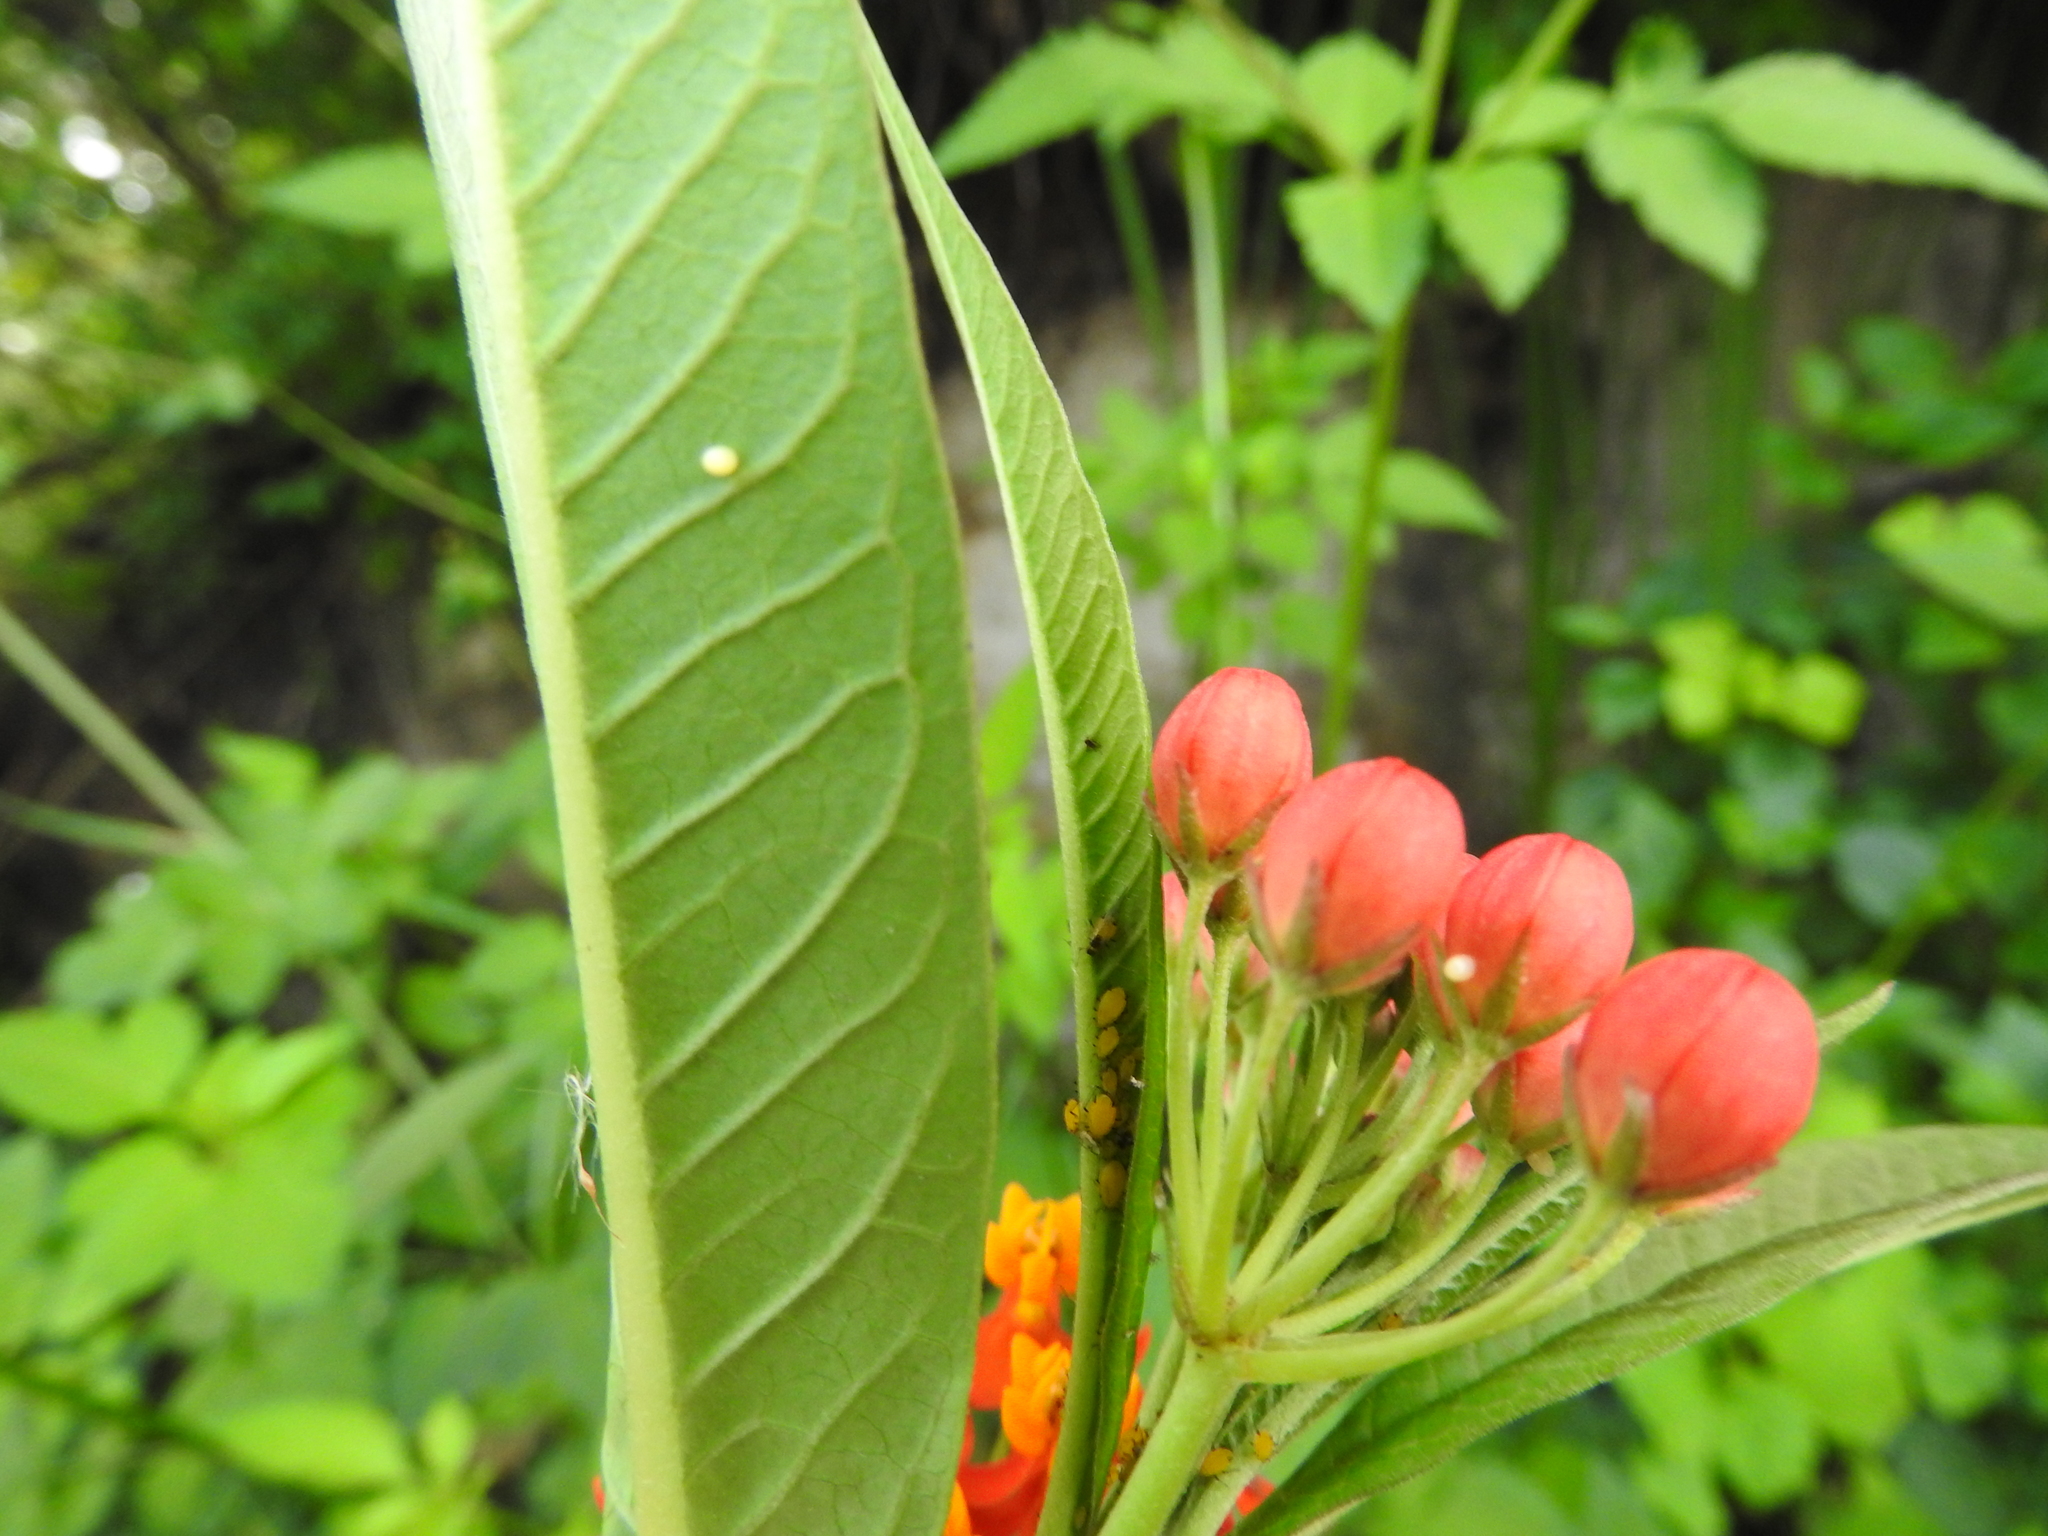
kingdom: Plantae
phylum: Tracheophyta
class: Magnoliopsida
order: Gentianales
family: Apocynaceae
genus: Asclepias
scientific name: Asclepias curassavica
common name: Bloodflower
